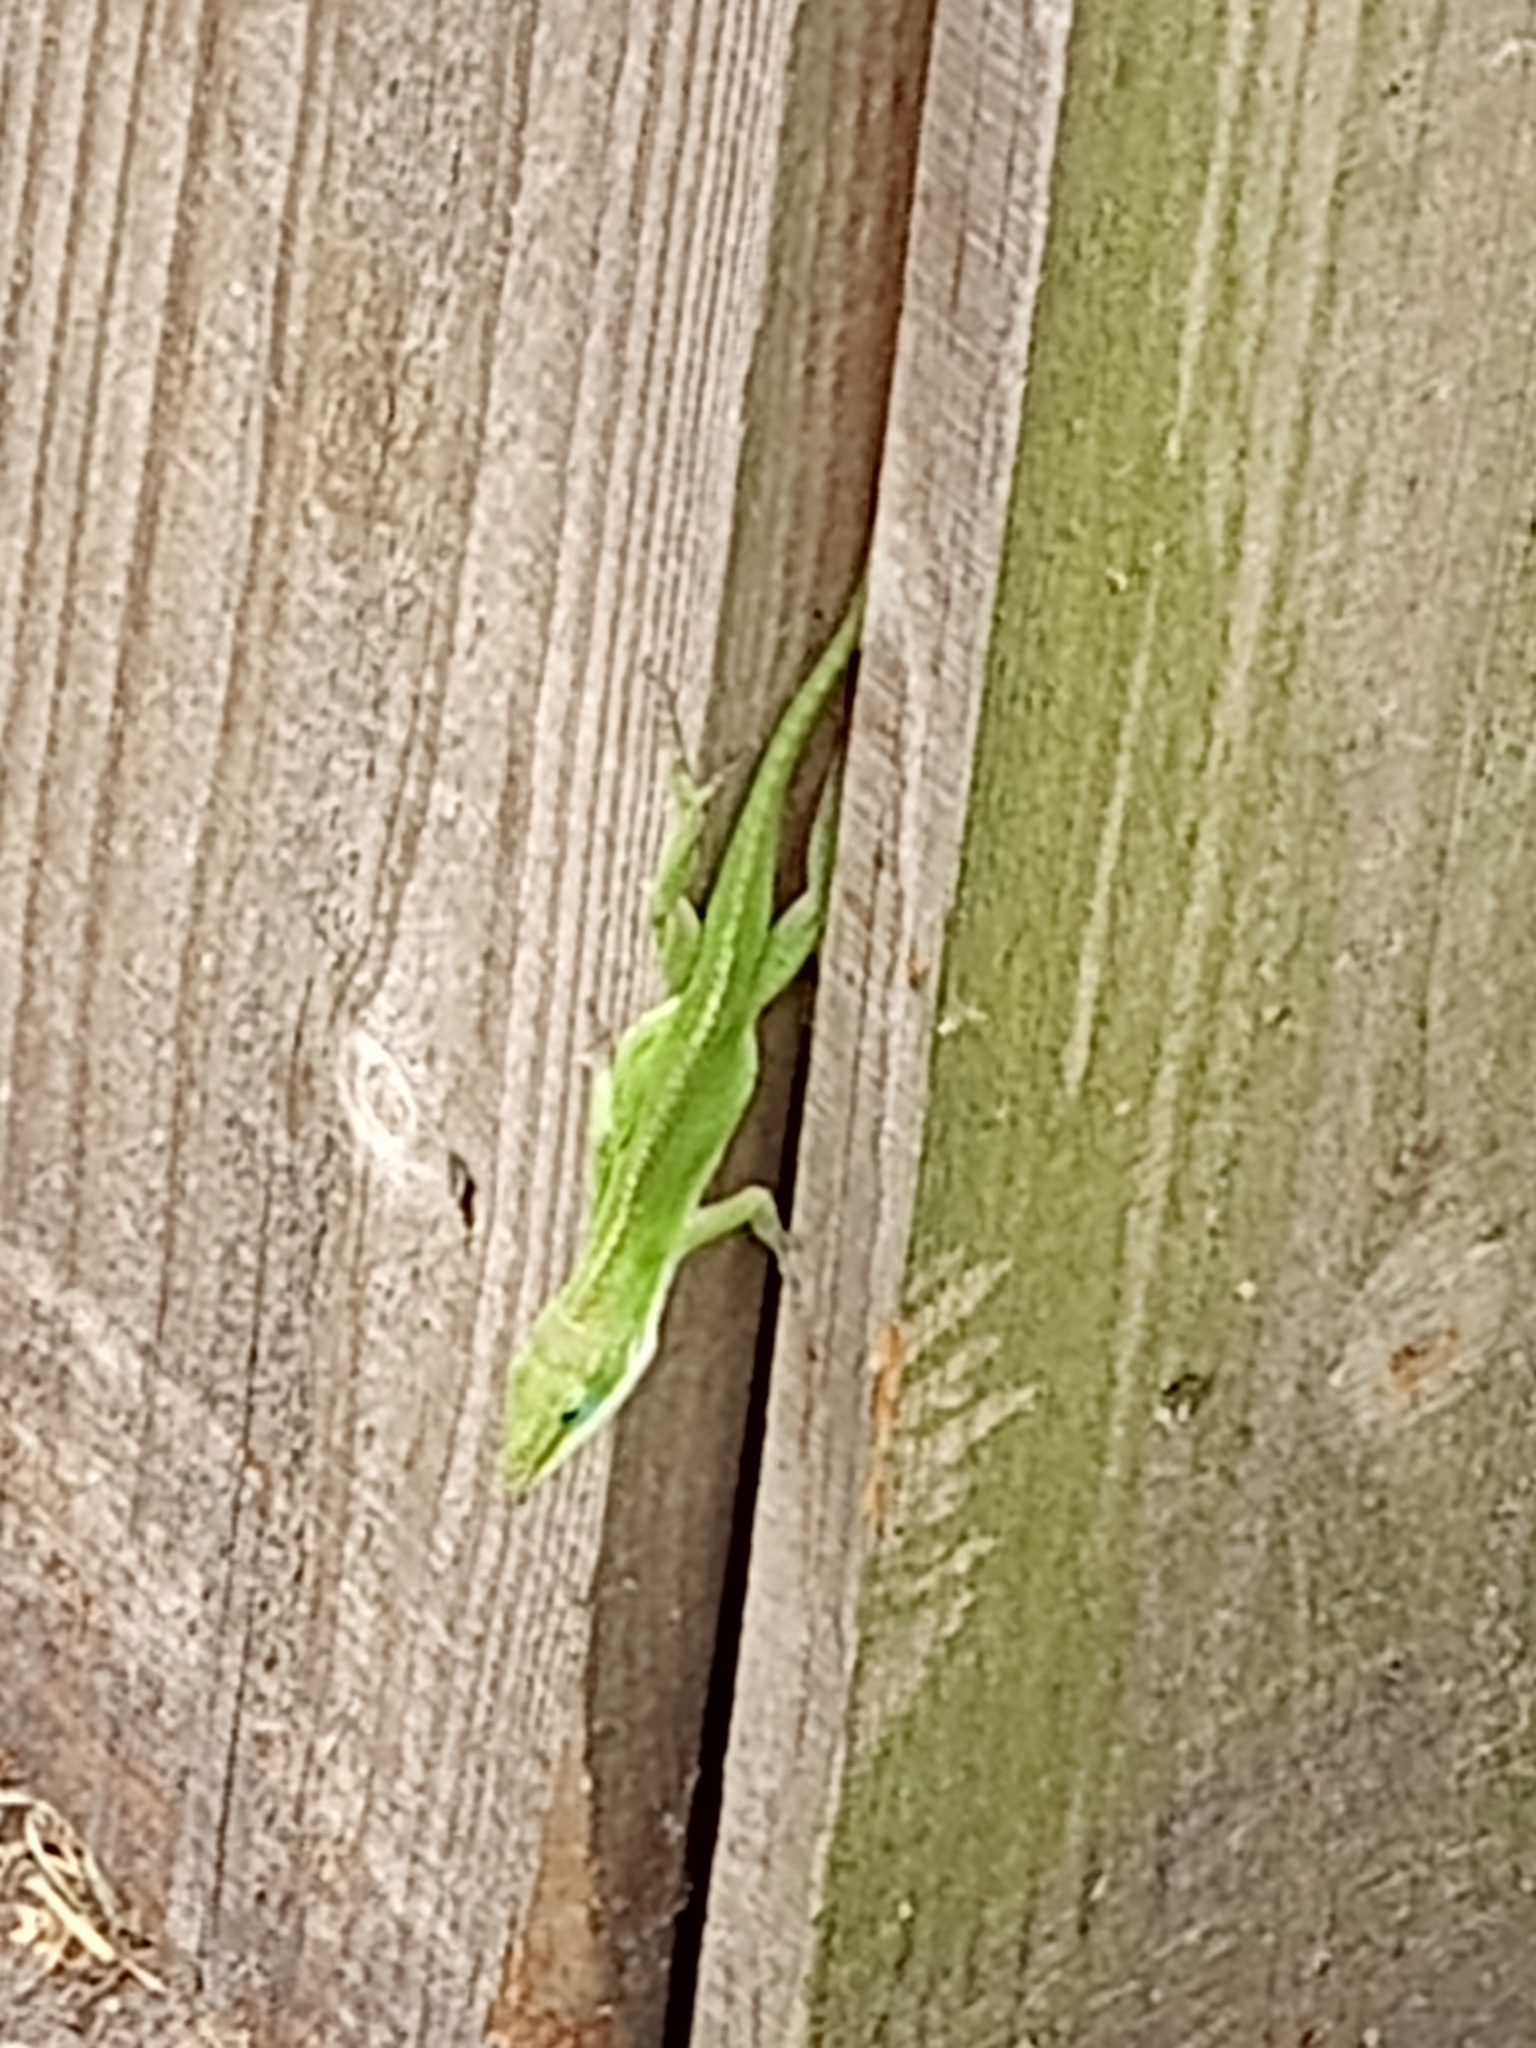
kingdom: Animalia
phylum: Chordata
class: Squamata
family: Dactyloidae
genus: Anolis
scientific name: Anolis carolinensis
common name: Green anole
